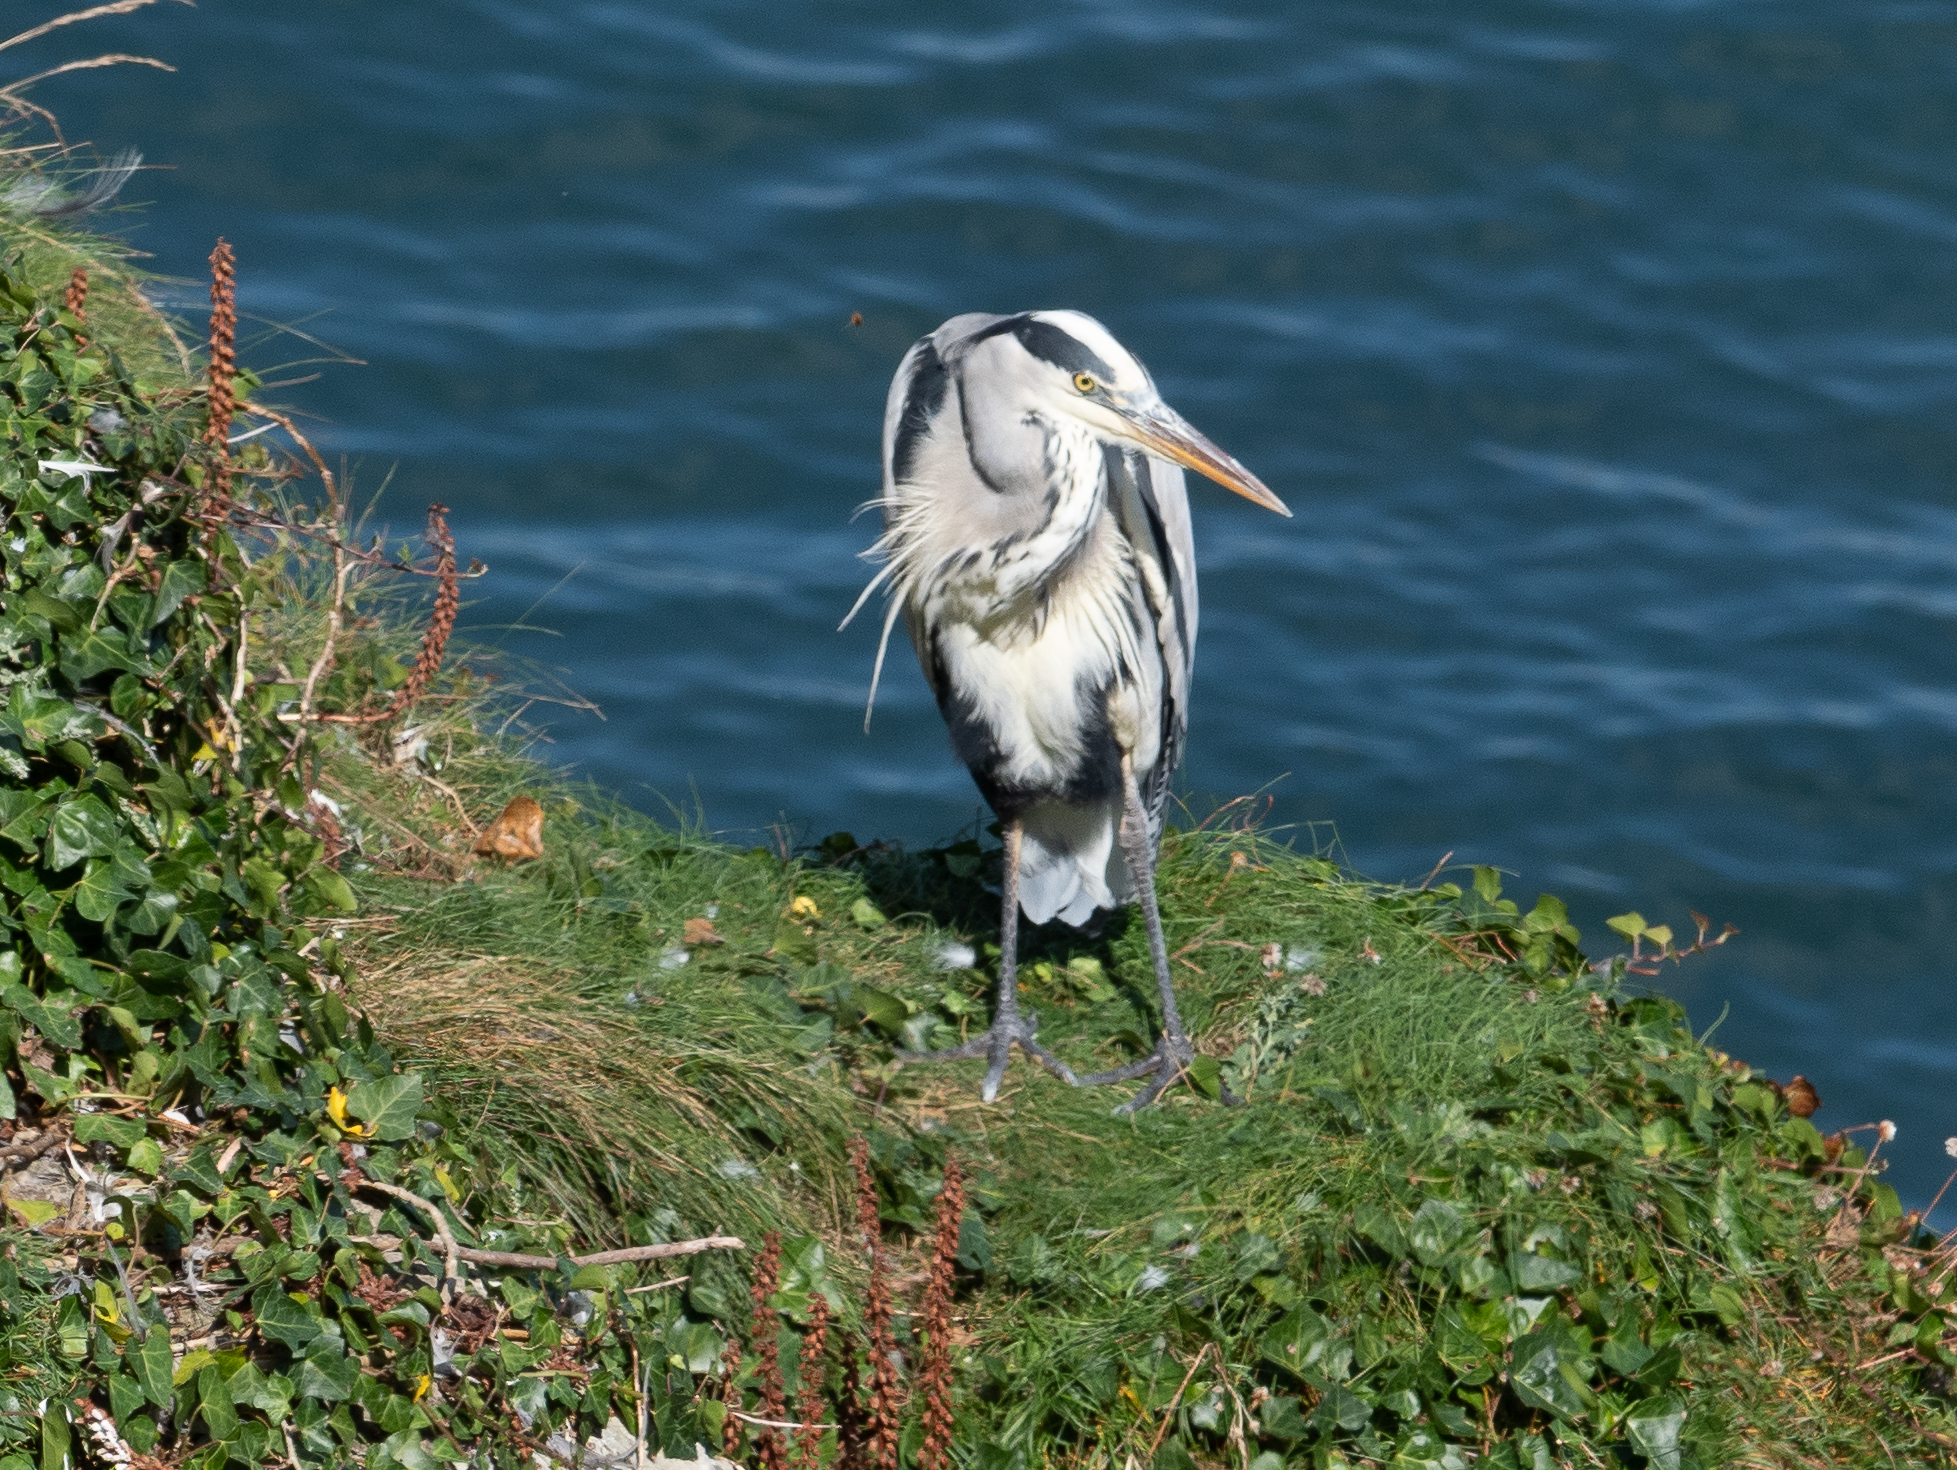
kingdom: Animalia
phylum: Chordata
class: Aves
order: Pelecaniformes
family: Ardeidae
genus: Ardea
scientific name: Ardea cinerea
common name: Grey heron
